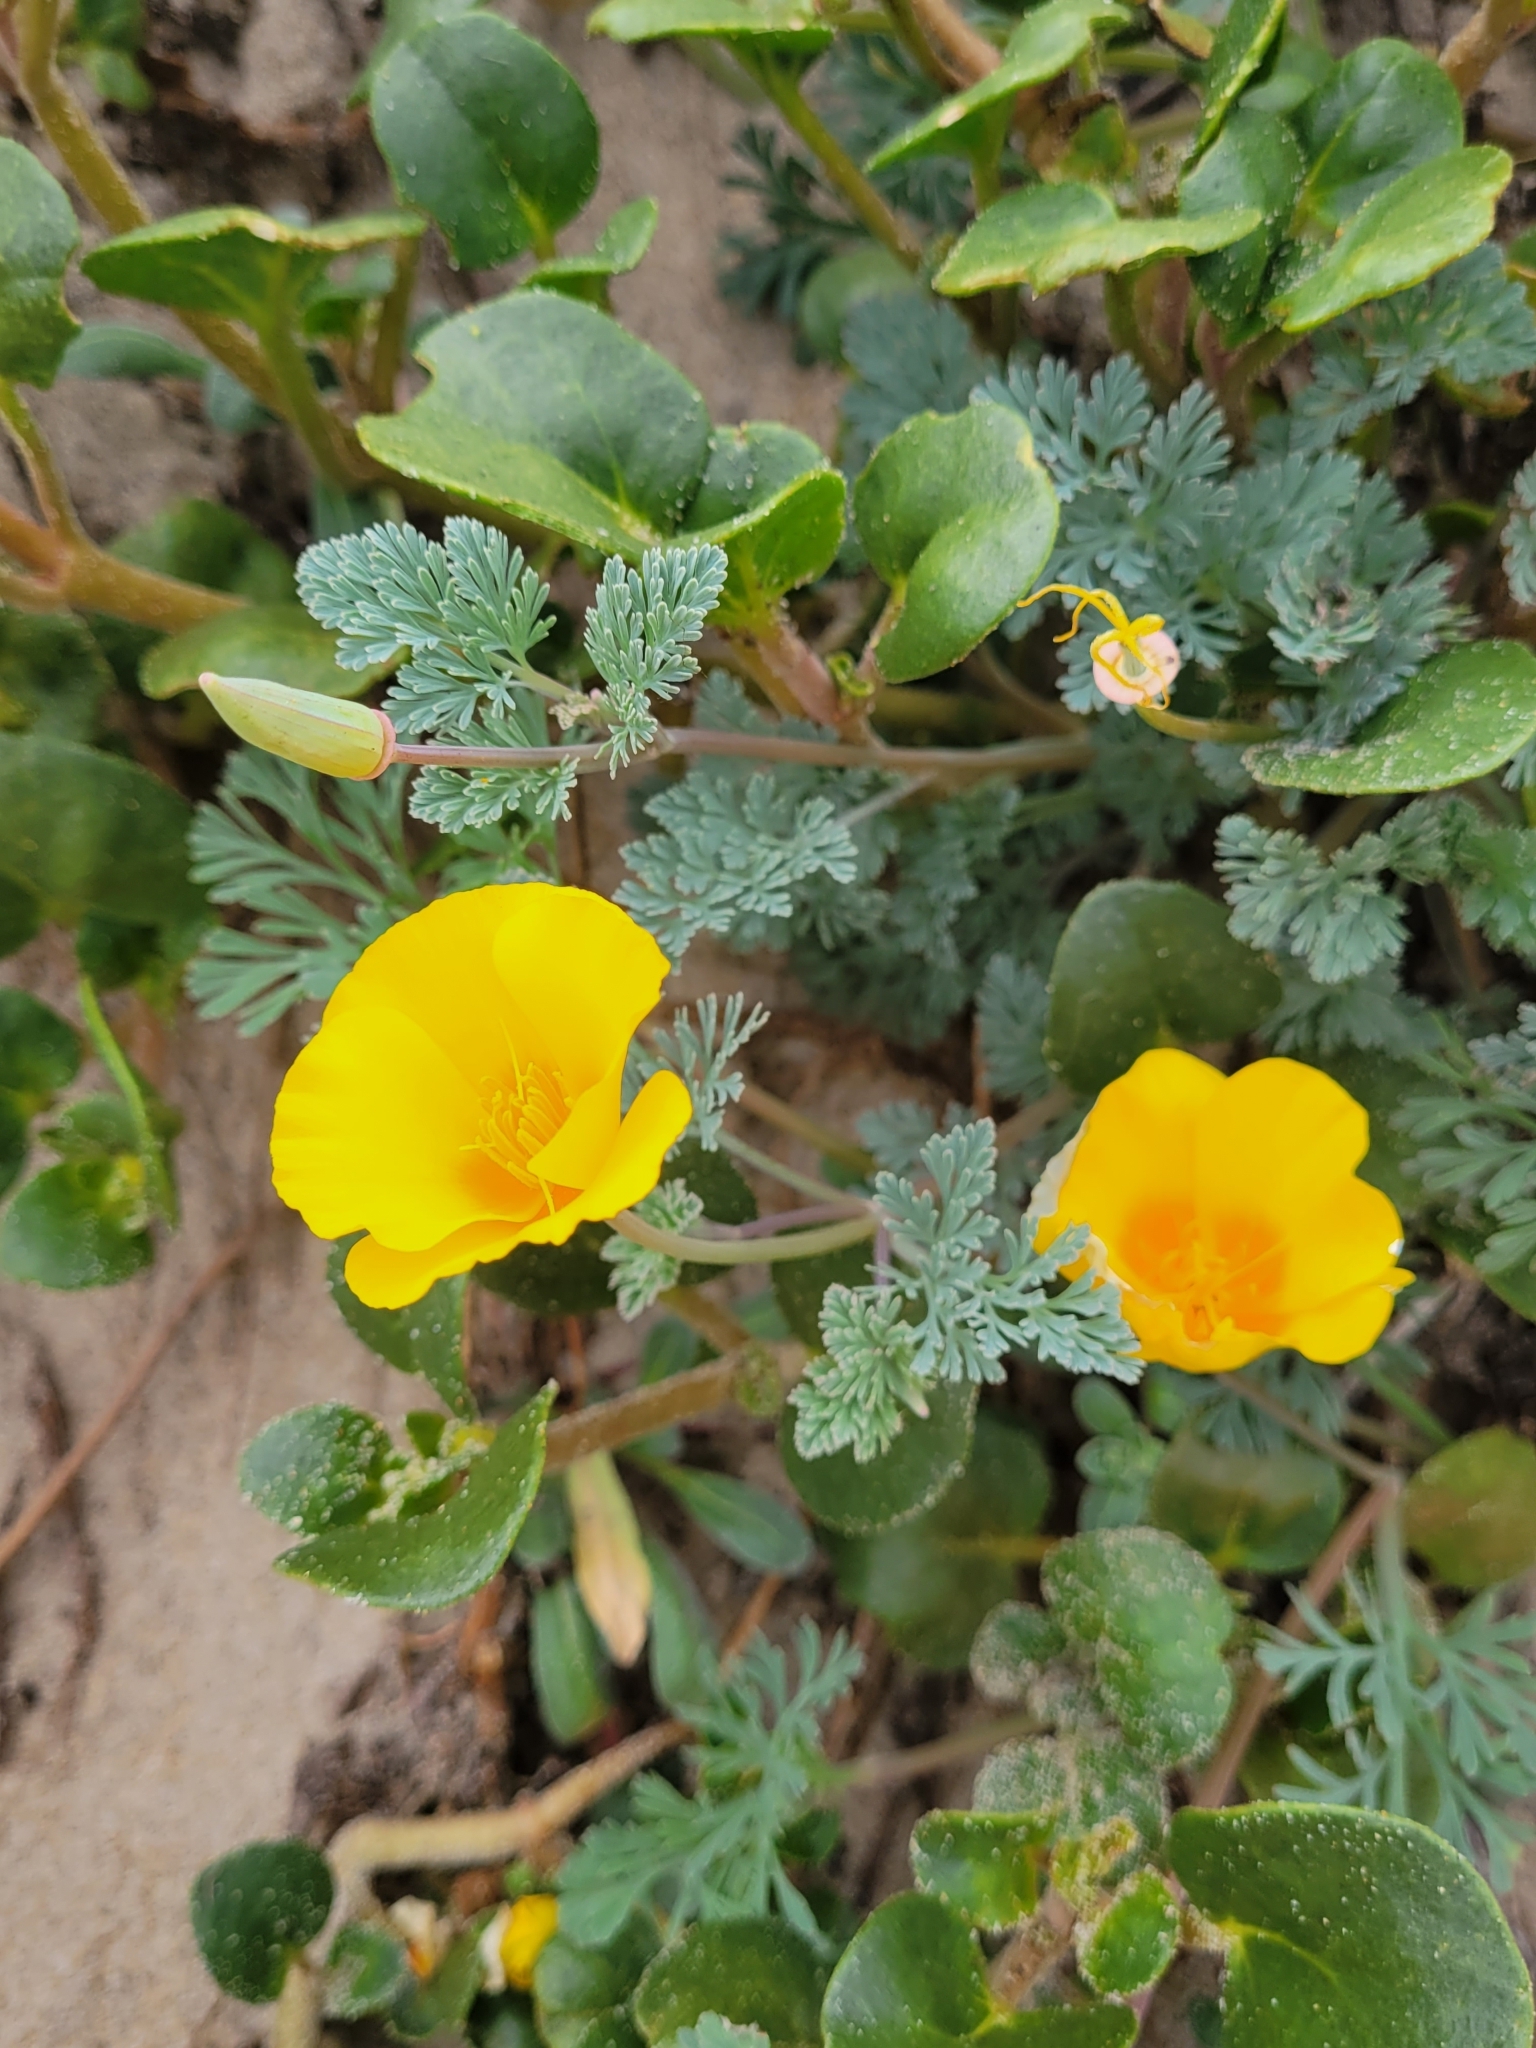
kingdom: Plantae
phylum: Tracheophyta
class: Magnoliopsida
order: Ranunculales
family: Papaveraceae
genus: Eschscholzia
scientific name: Eschscholzia californica
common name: California poppy
